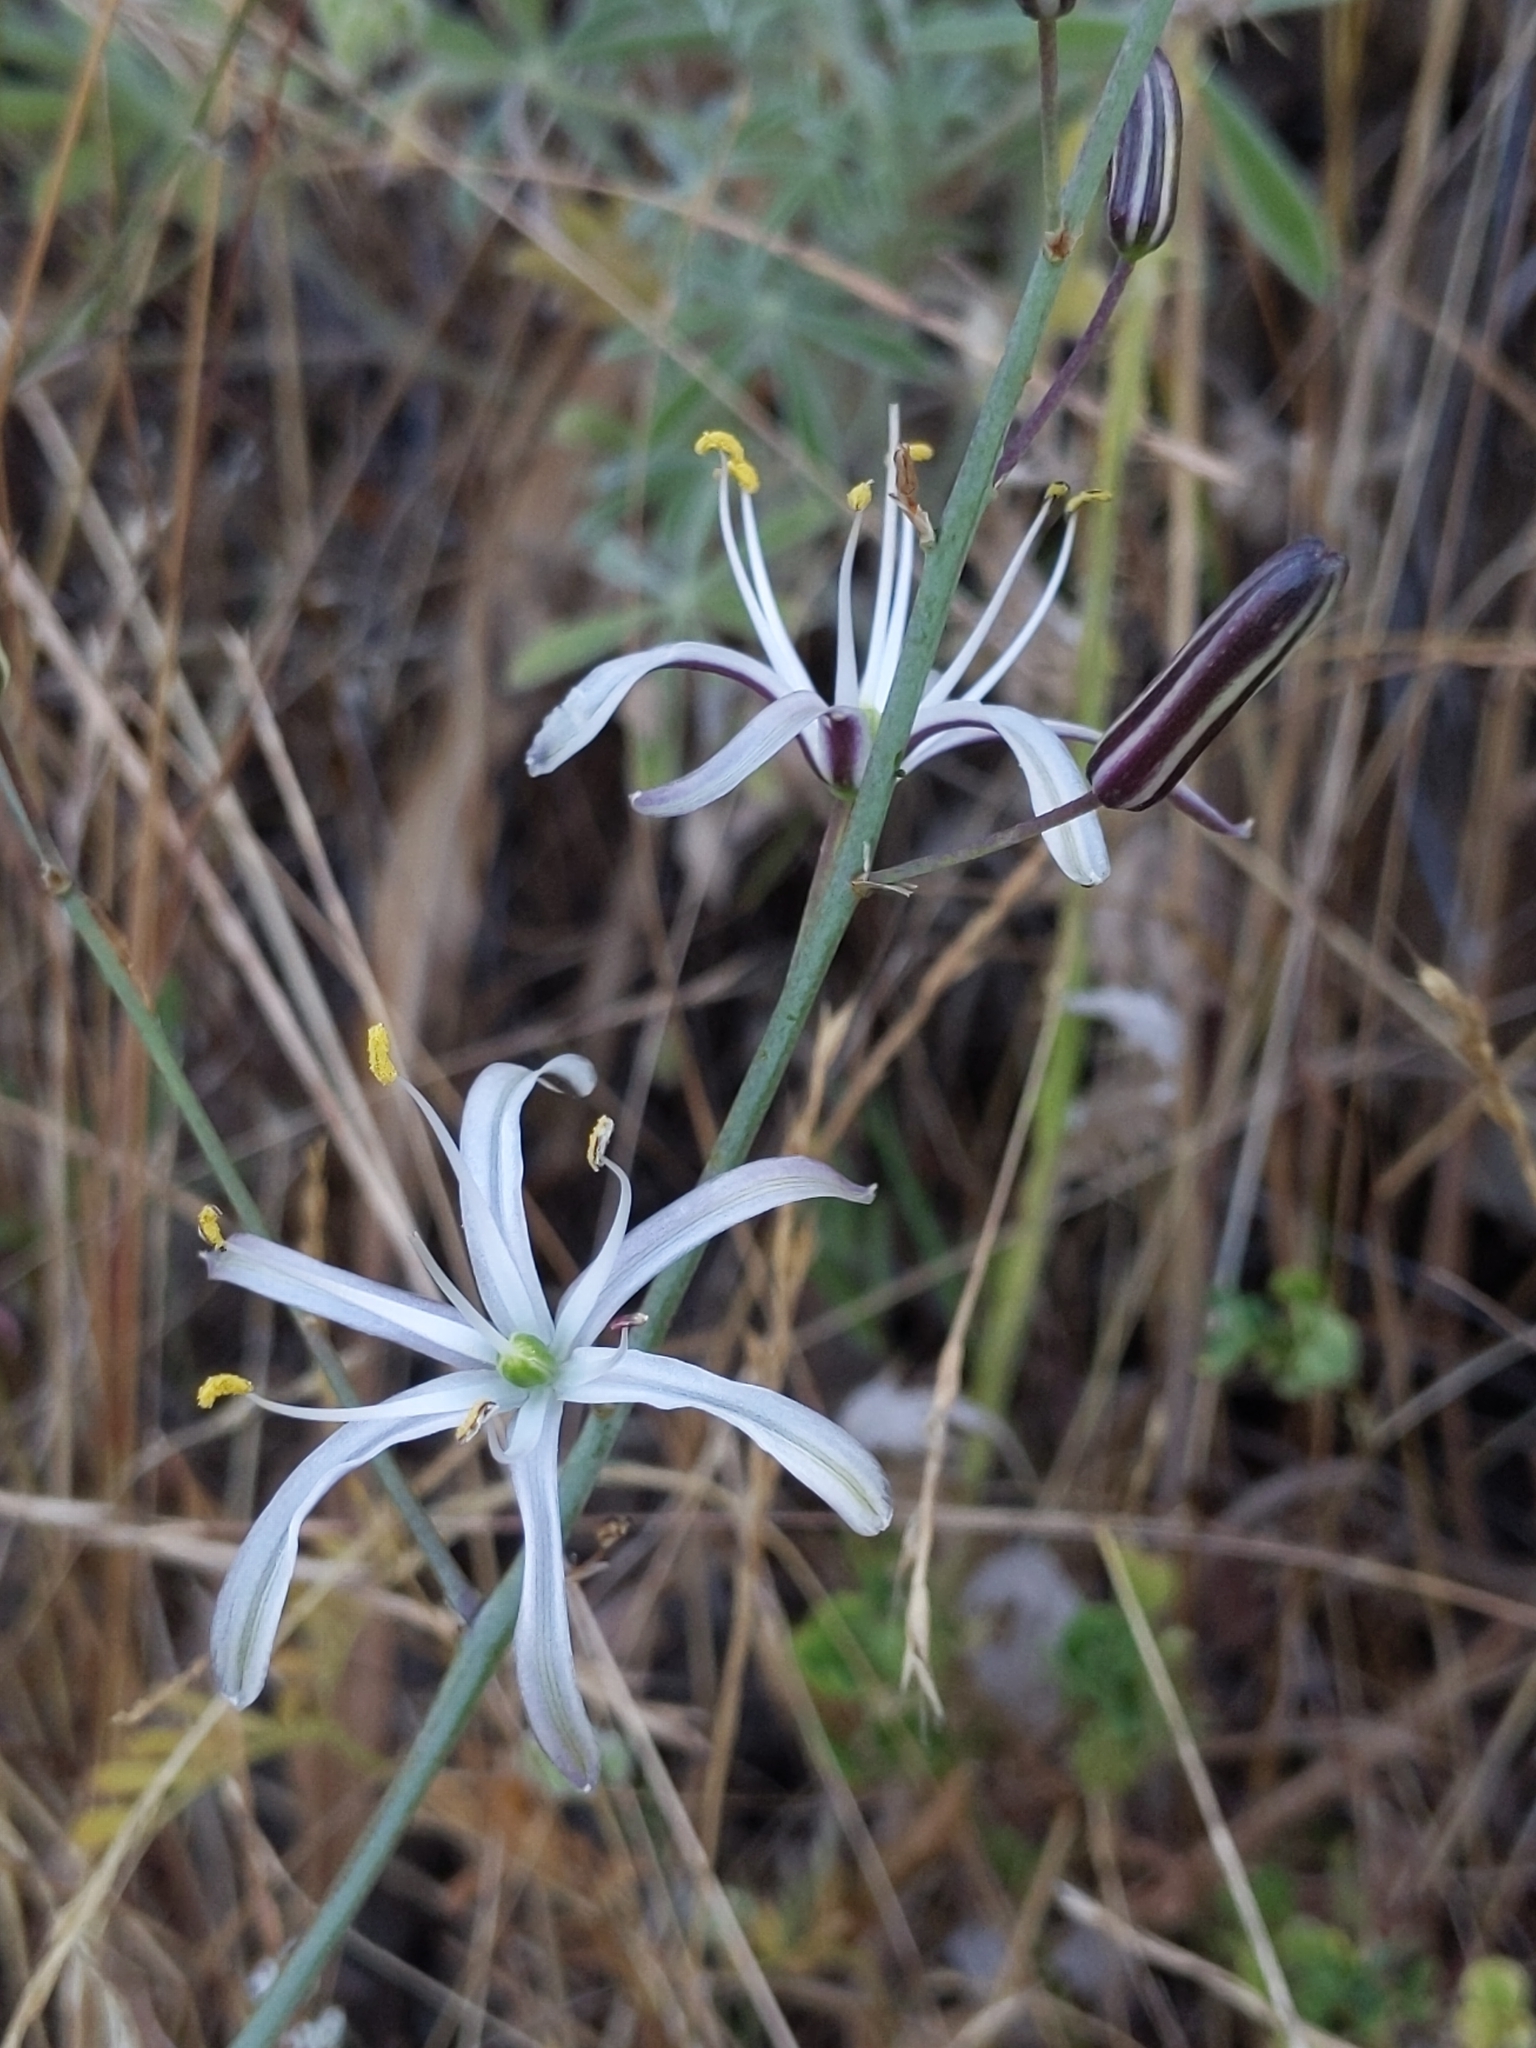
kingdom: Plantae
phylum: Tracheophyta
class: Liliopsida
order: Asparagales
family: Asparagaceae
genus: Chlorogalum
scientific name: Chlorogalum pomeridianum
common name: Amole
